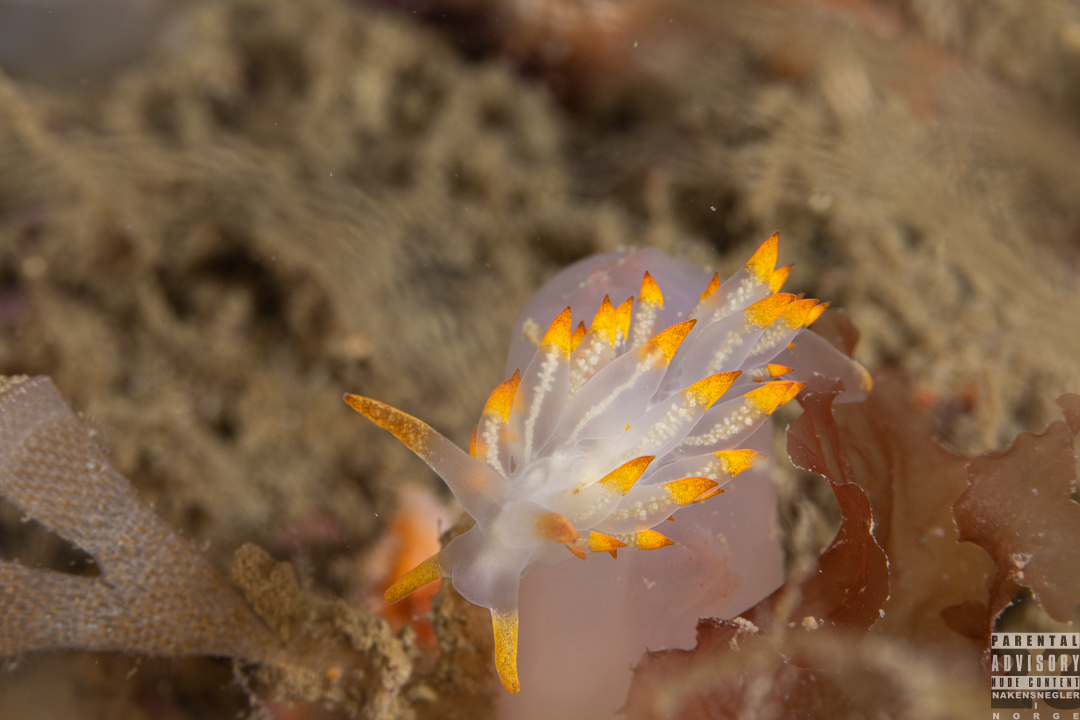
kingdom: Animalia
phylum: Mollusca
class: Gastropoda
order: Nudibranchia
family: Eubranchidae
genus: Amphorina
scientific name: Amphorina farrani
